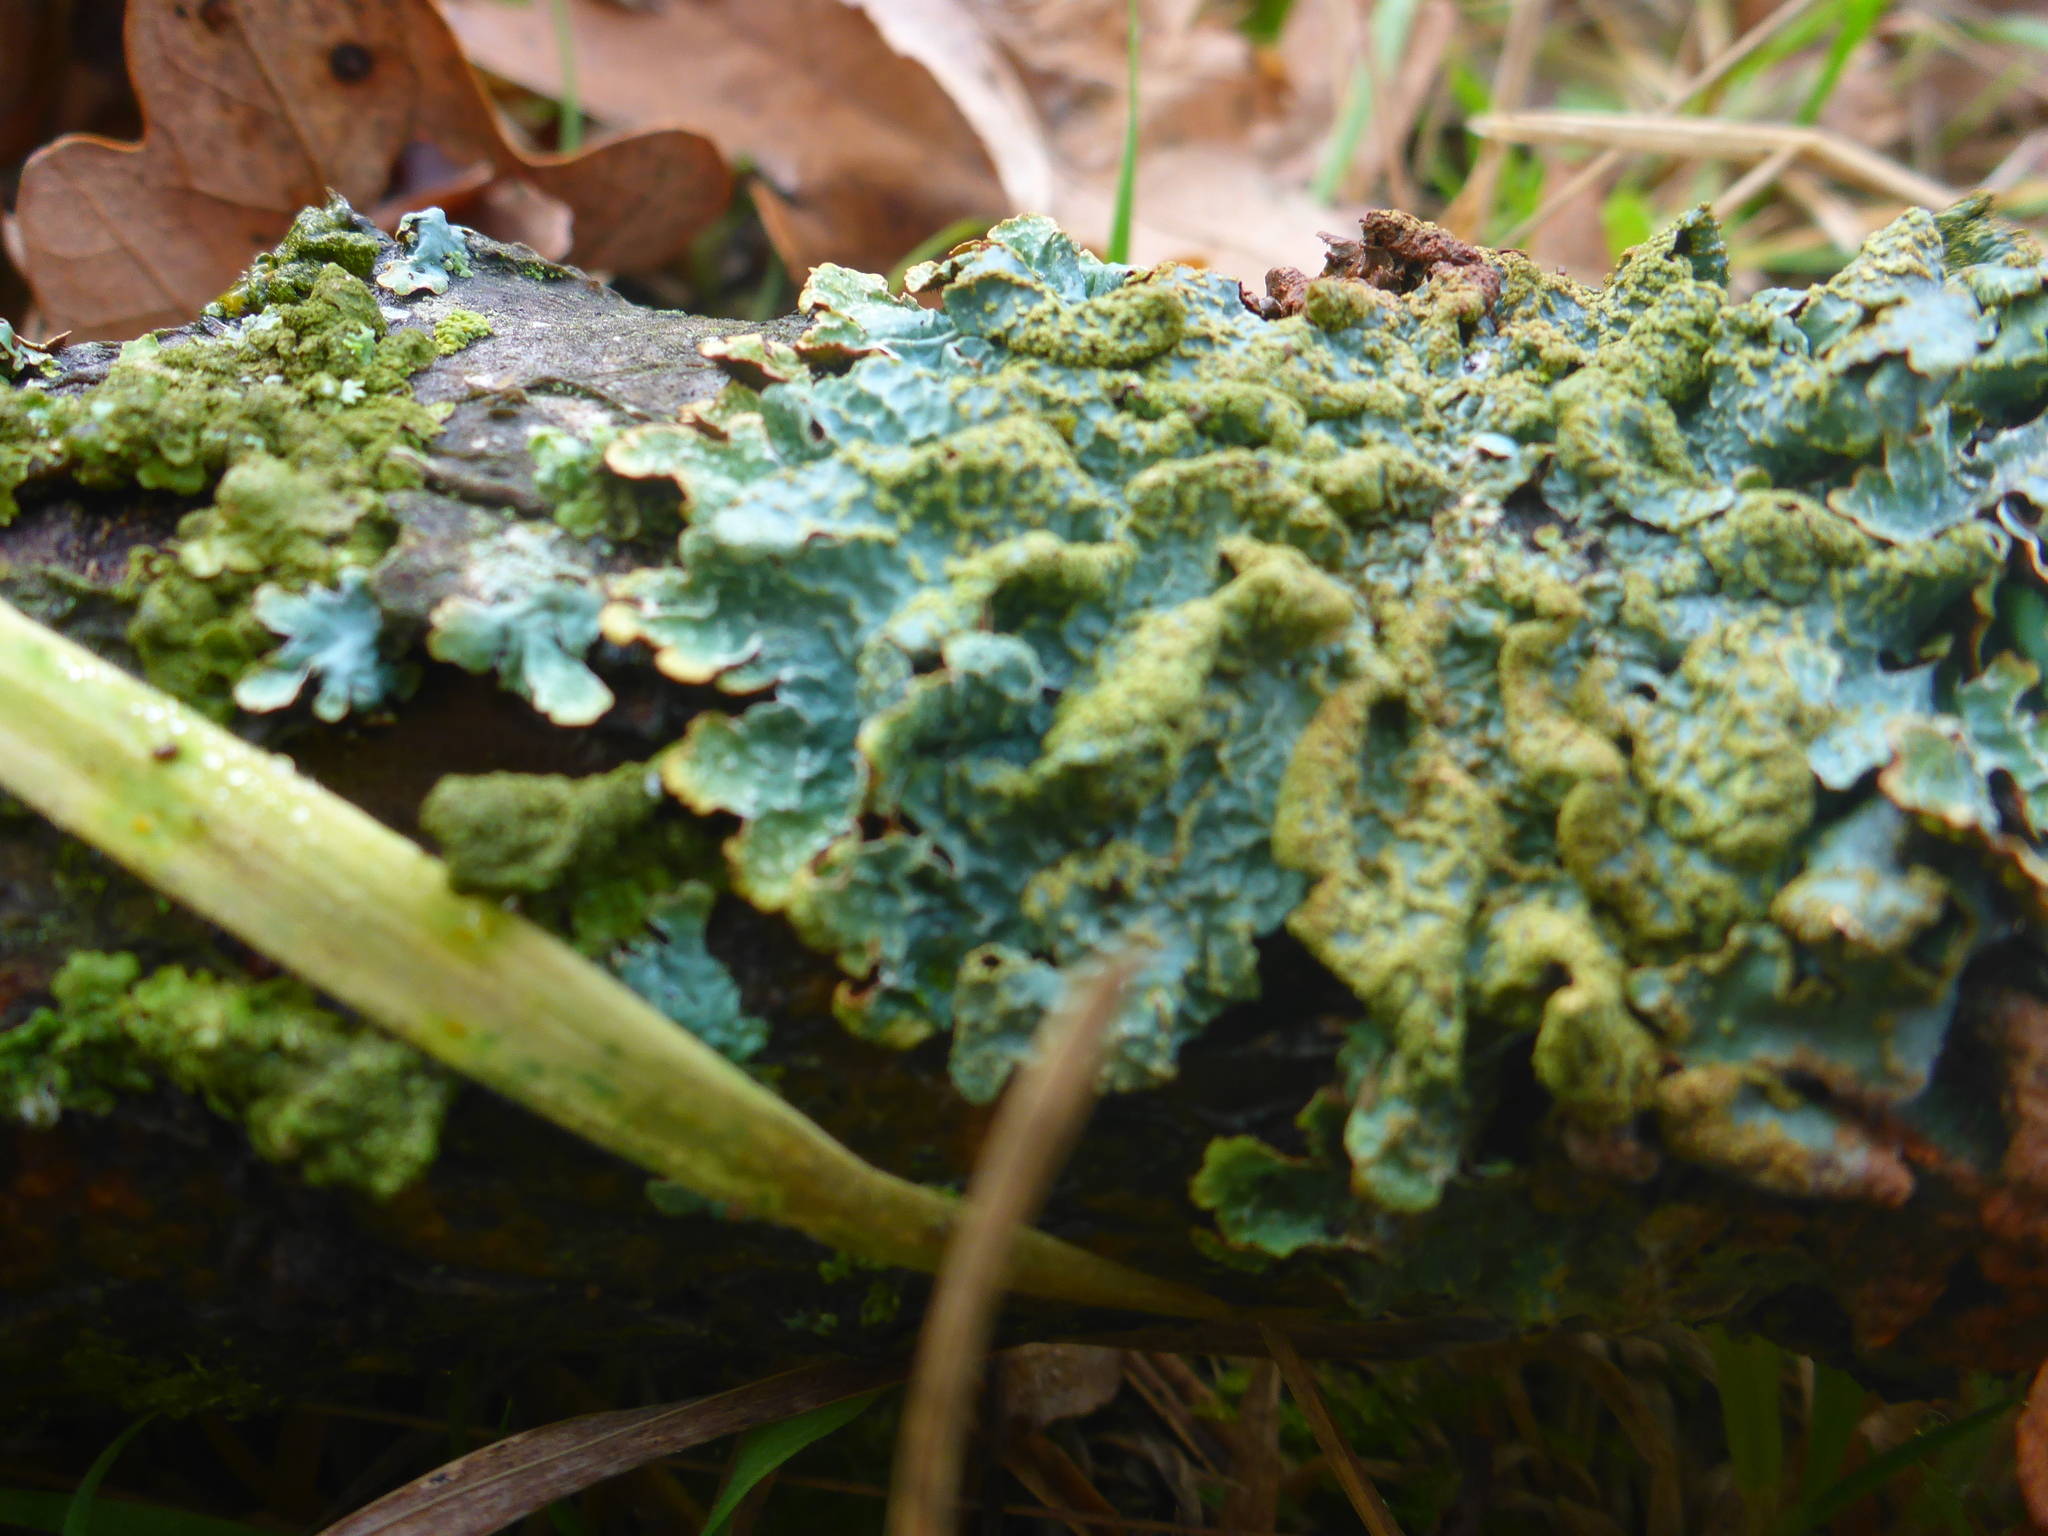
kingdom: Fungi
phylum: Ascomycota
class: Lecanoromycetes
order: Lecanorales
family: Parmeliaceae
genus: Parmelia
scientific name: Parmelia sulcata
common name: Netted shield lichen
